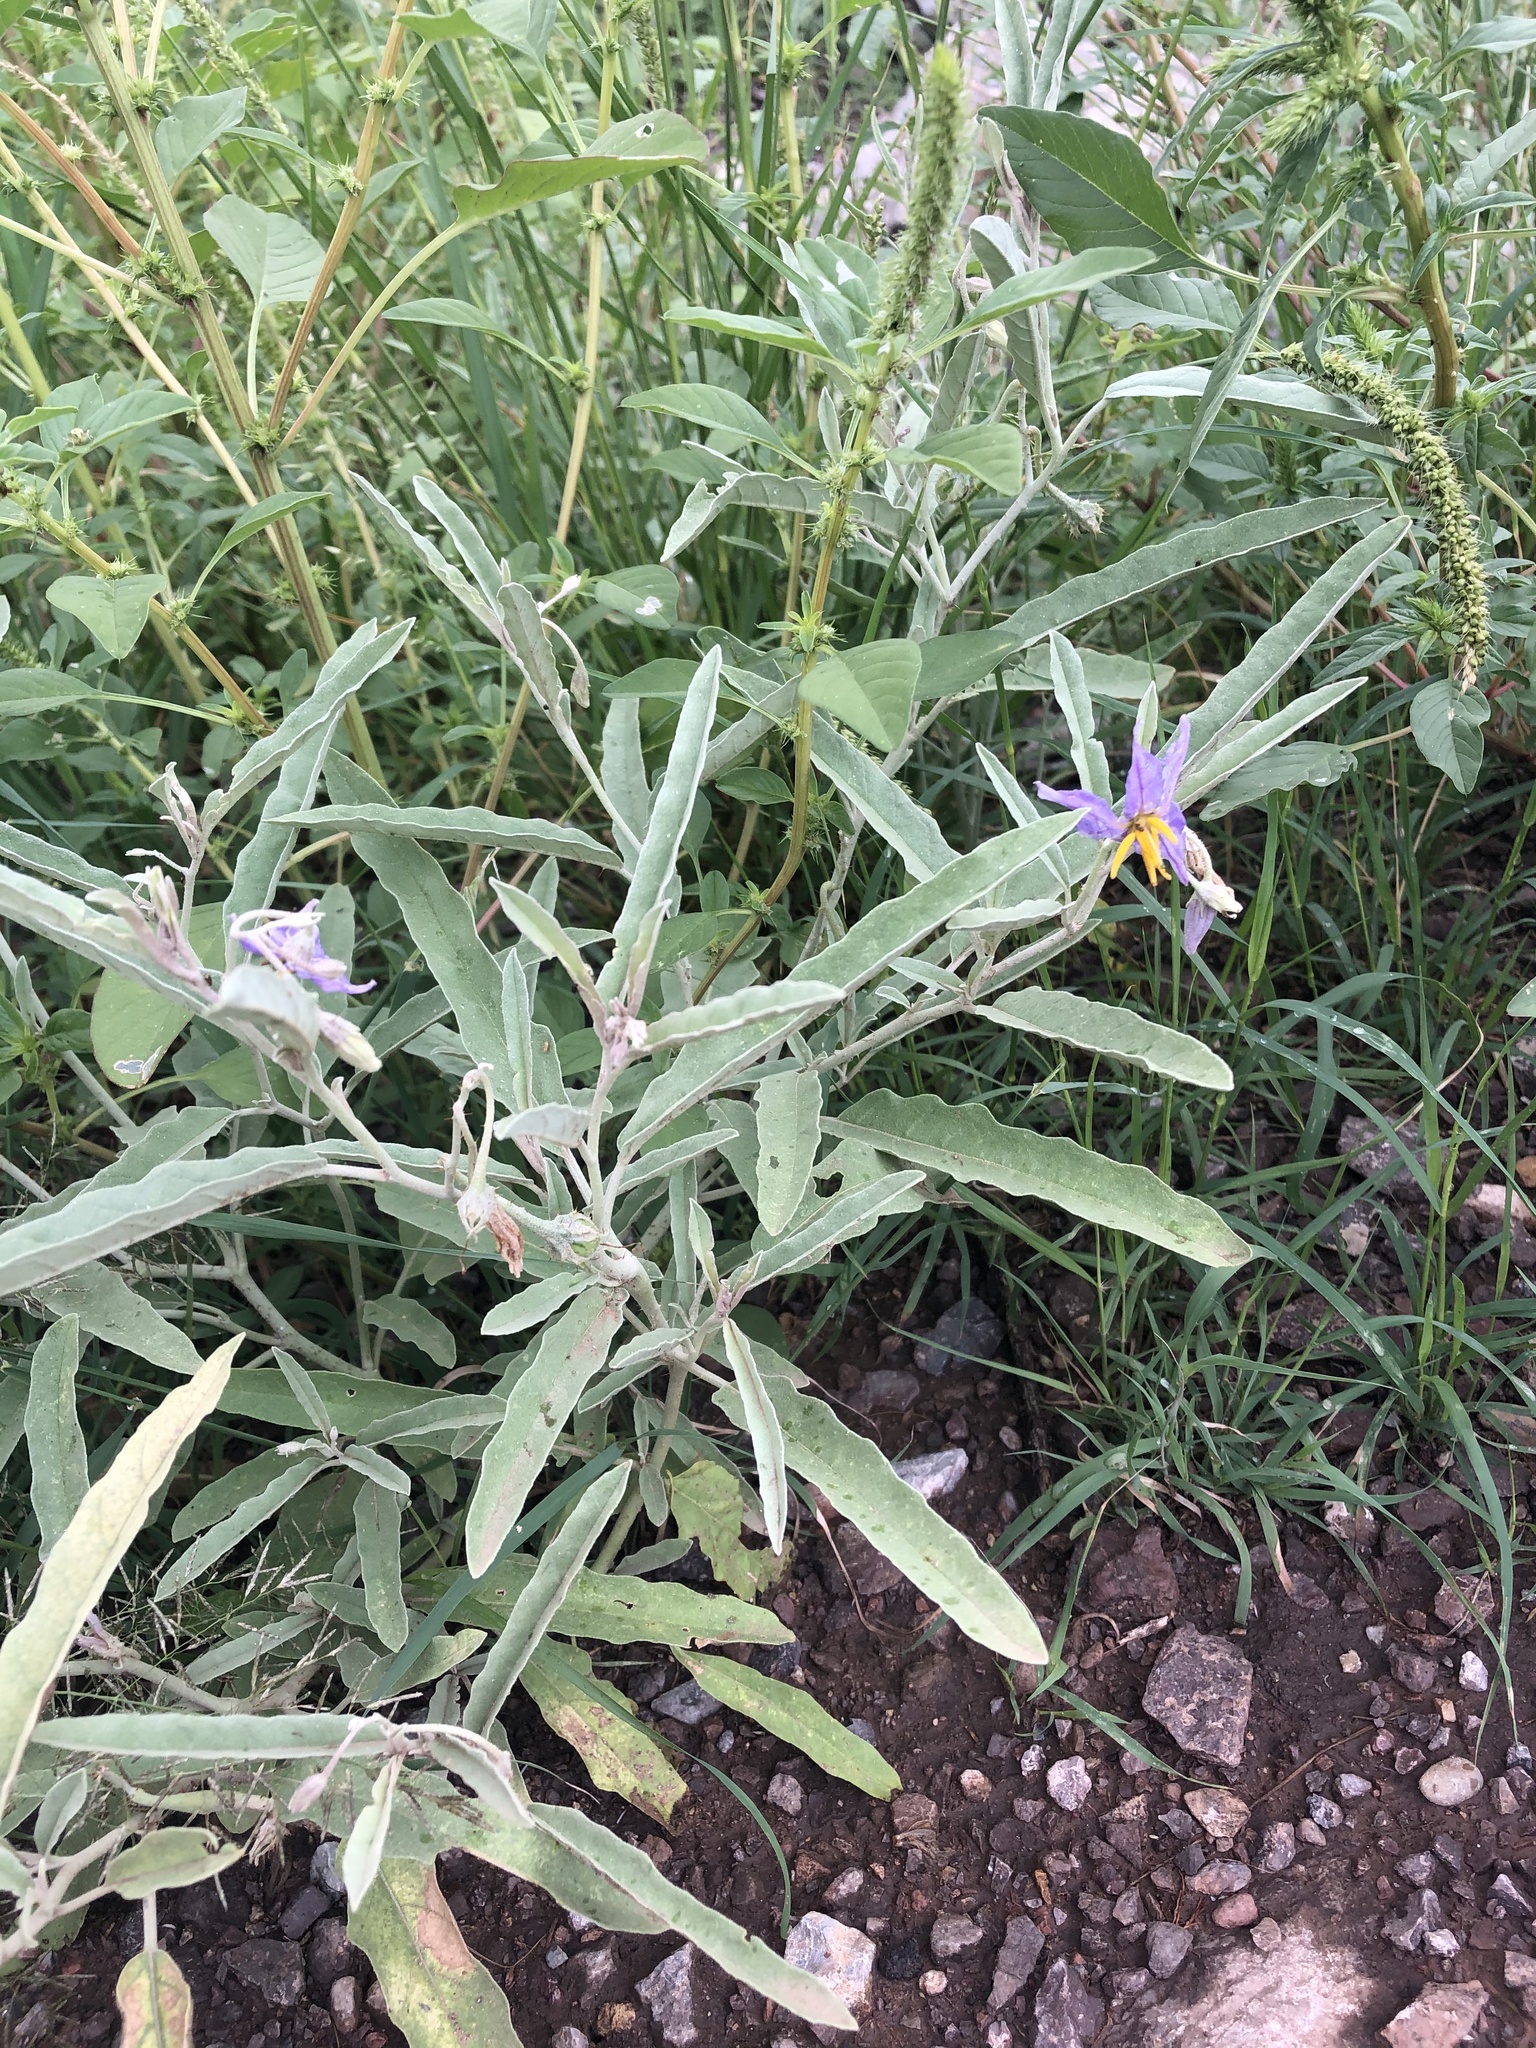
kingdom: Plantae
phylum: Tracheophyta
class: Magnoliopsida
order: Solanales
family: Solanaceae
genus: Solanum
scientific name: Solanum elaeagnifolium
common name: Silverleaf nightshade
